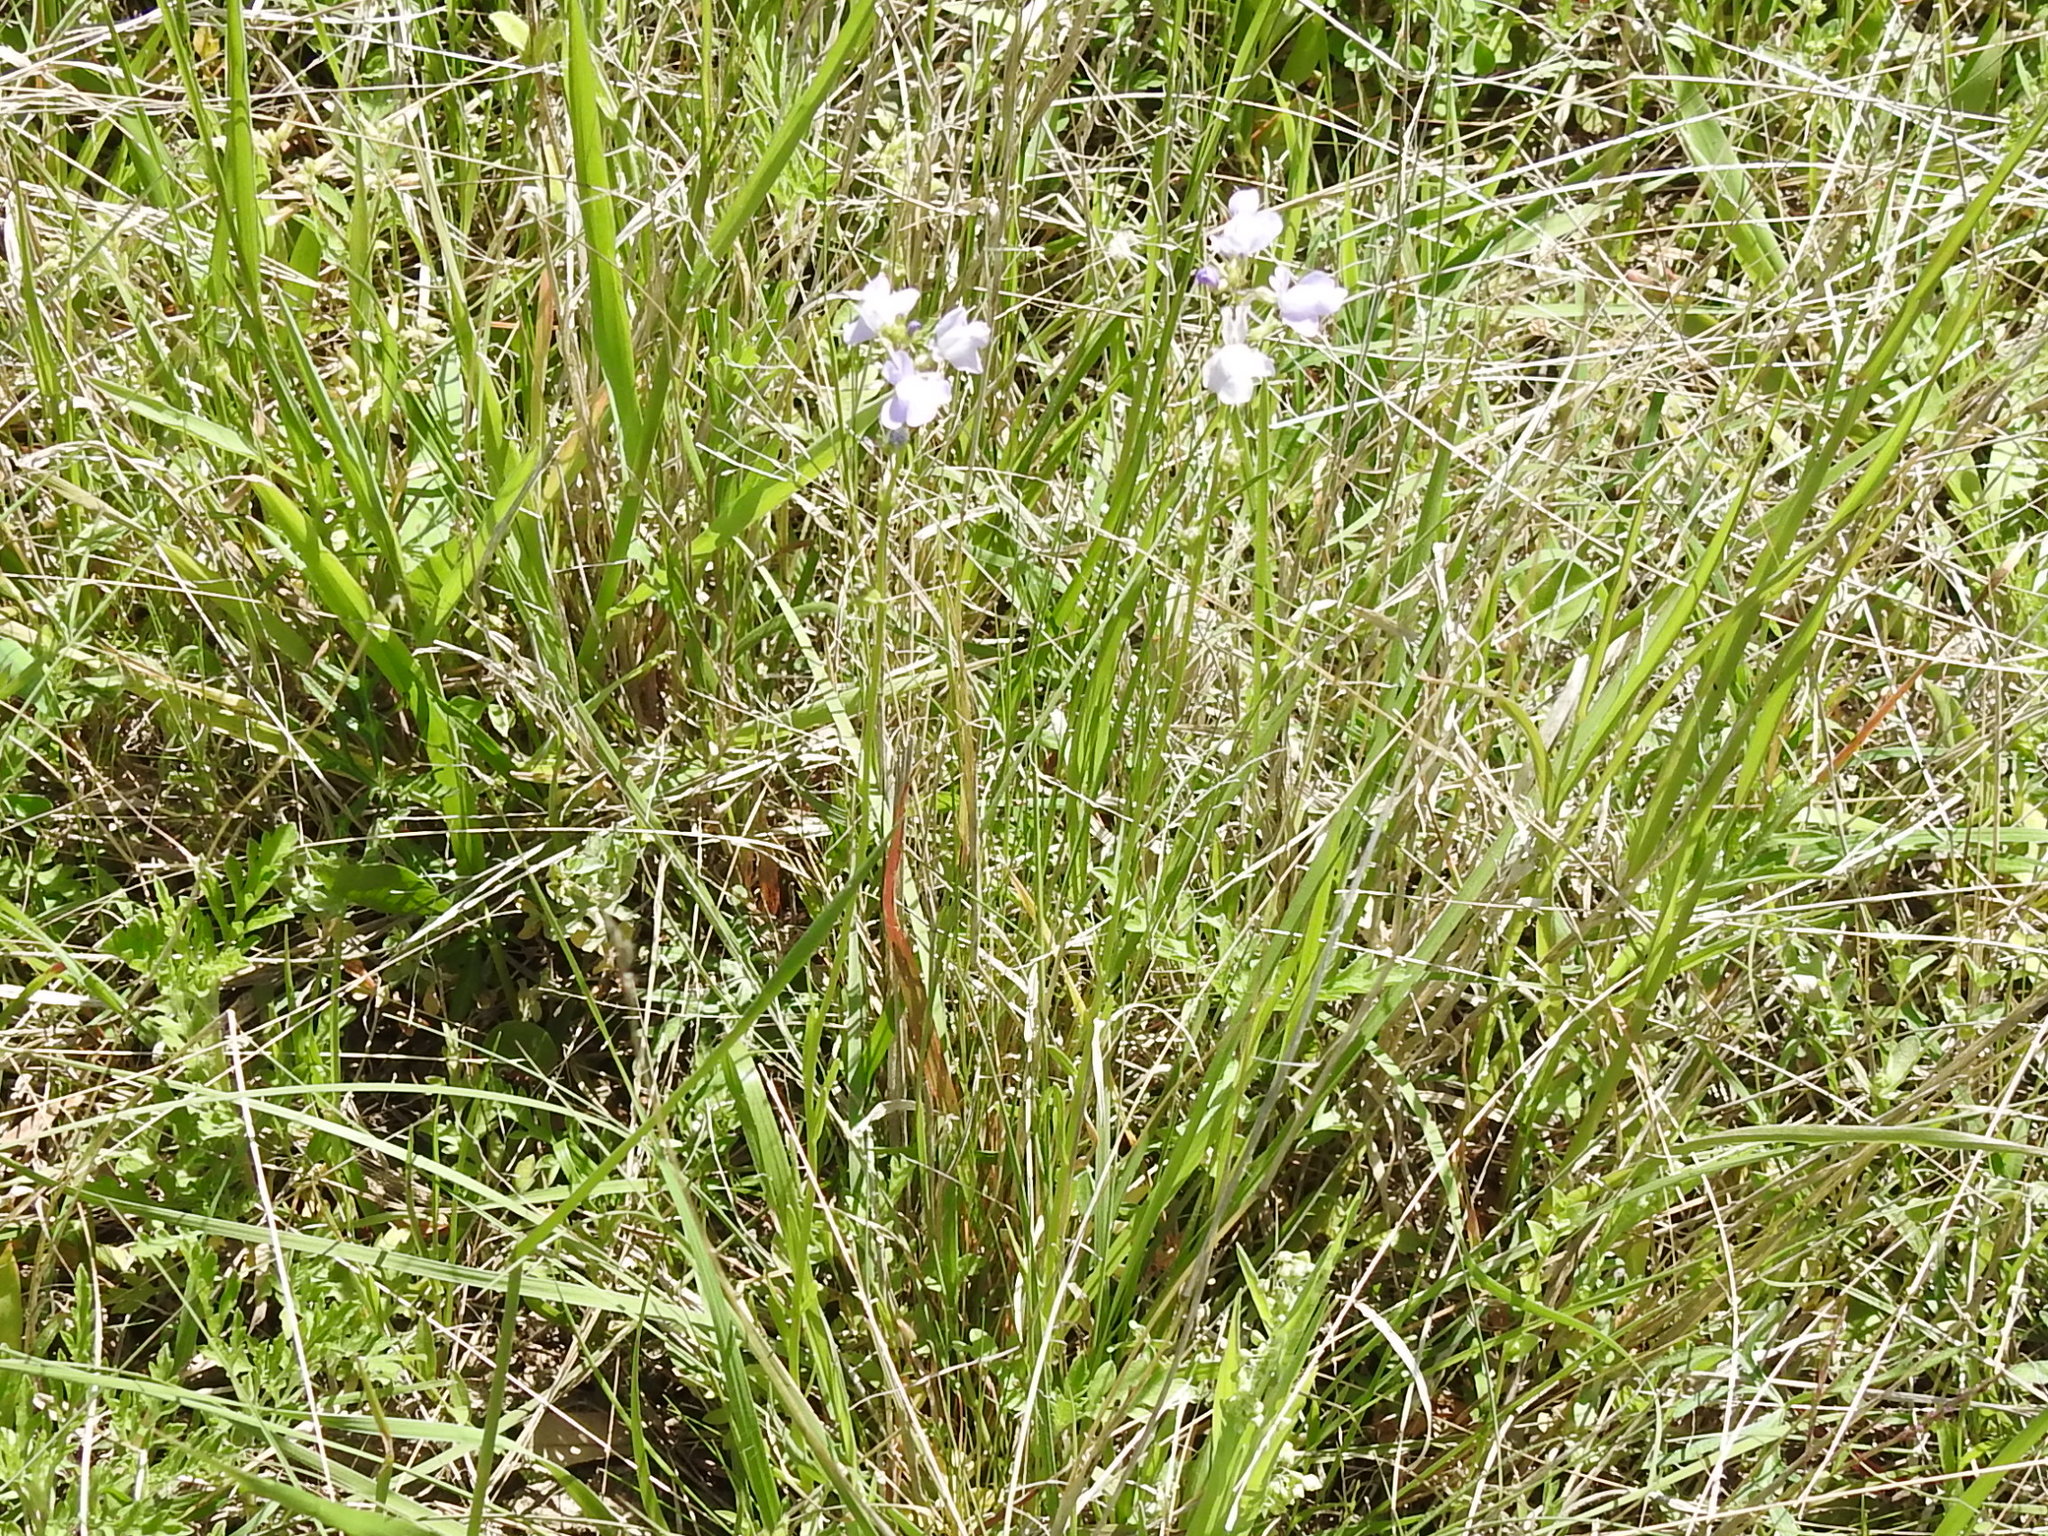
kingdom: Plantae
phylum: Tracheophyta
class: Magnoliopsida
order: Lamiales
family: Plantaginaceae
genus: Nuttallanthus
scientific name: Nuttallanthus texanus
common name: Texas toadflax
